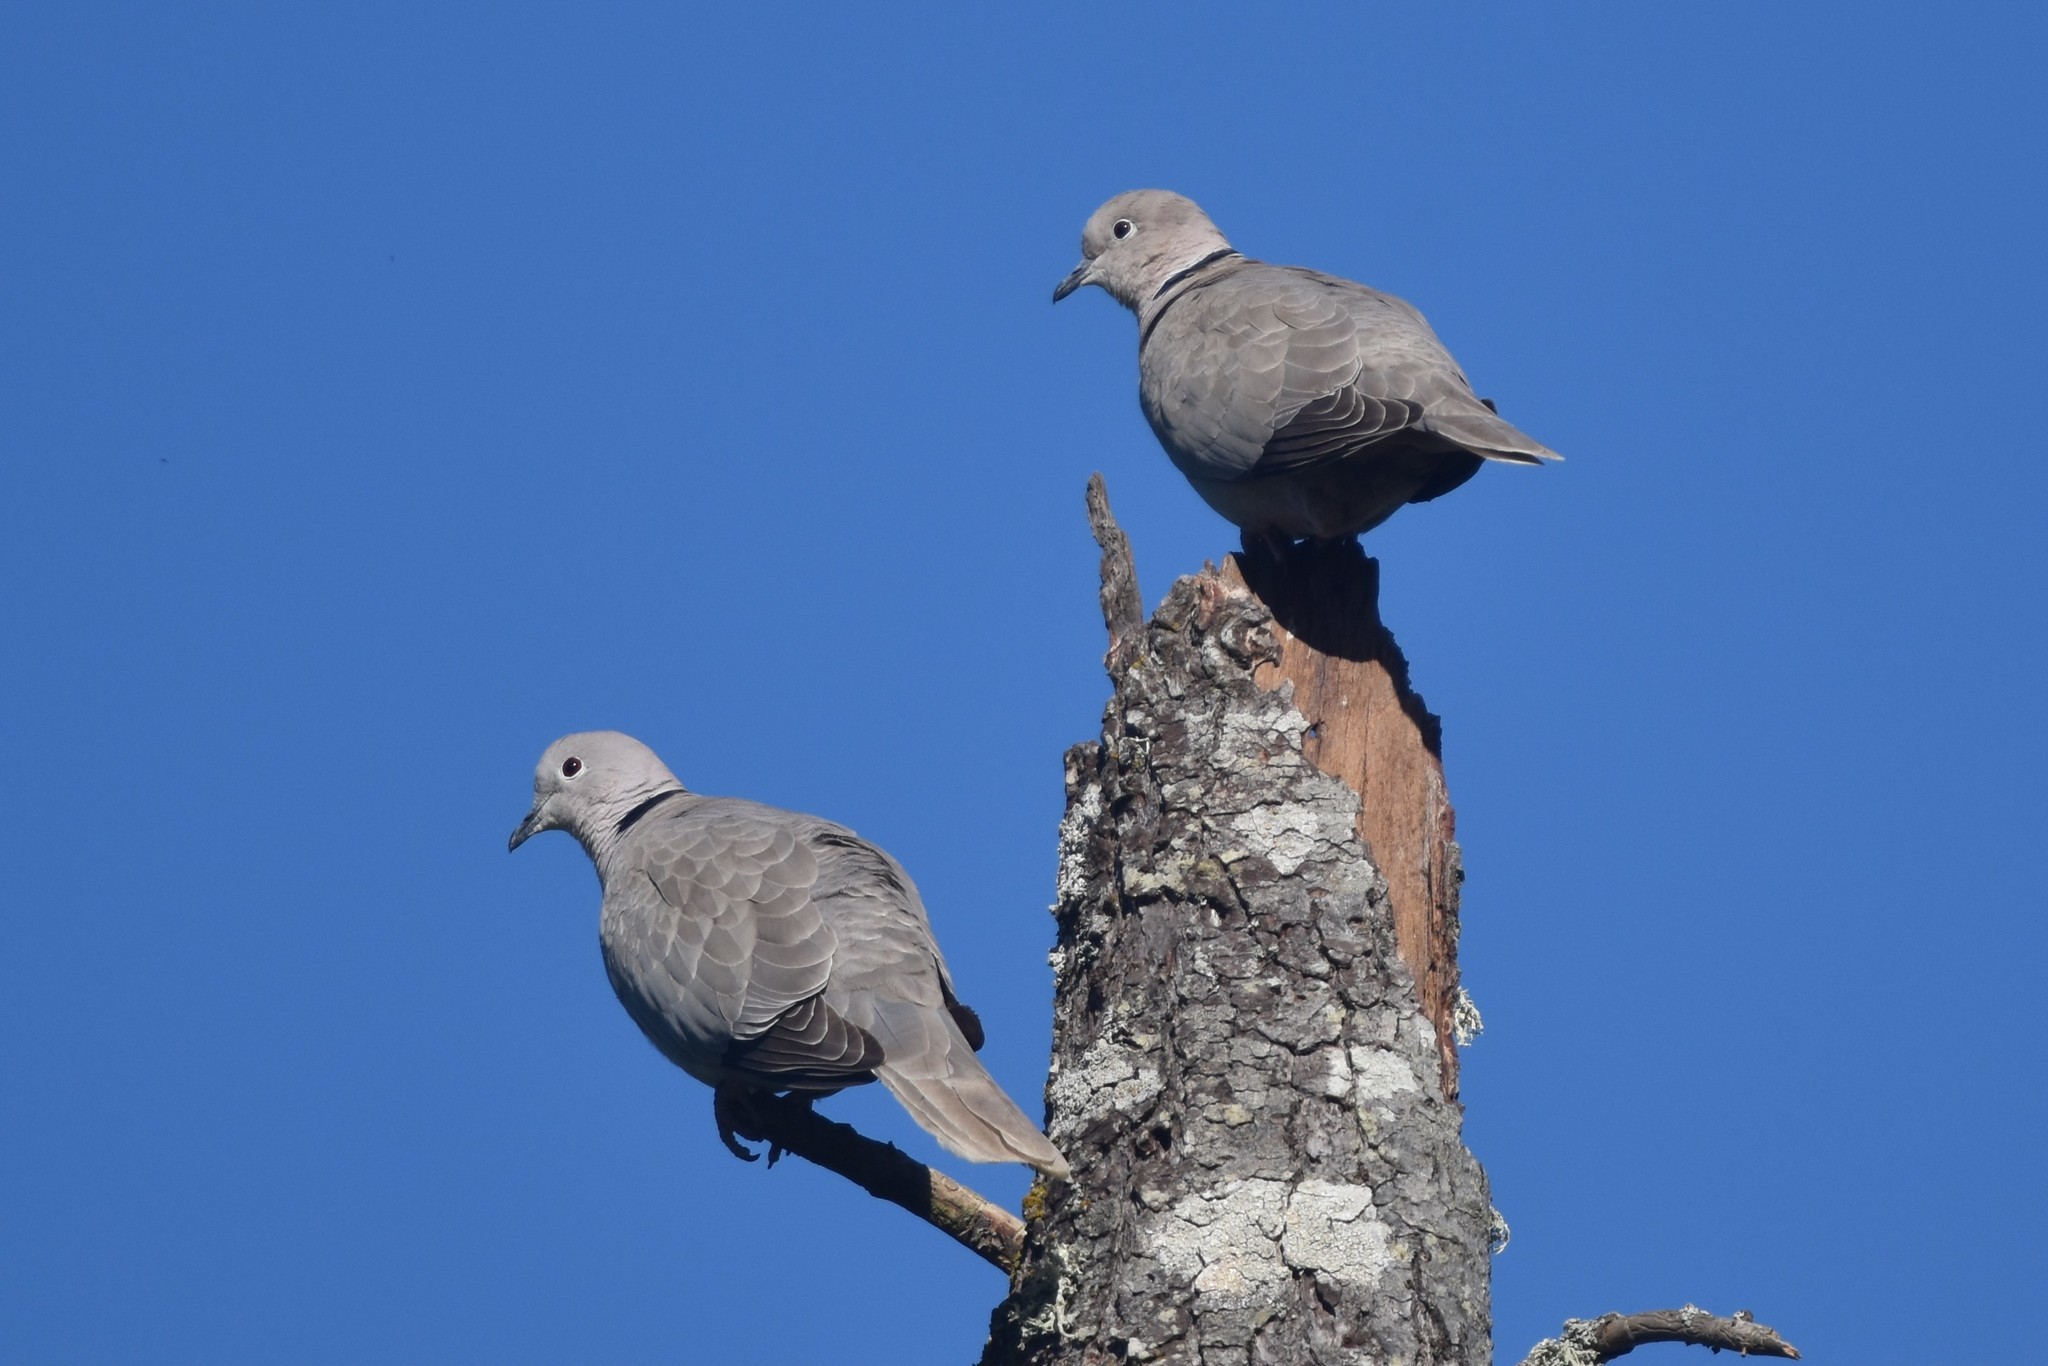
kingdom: Animalia
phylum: Chordata
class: Aves
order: Columbiformes
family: Columbidae
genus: Streptopelia
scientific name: Streptopelia decaocto
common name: Eurasian collared dove
